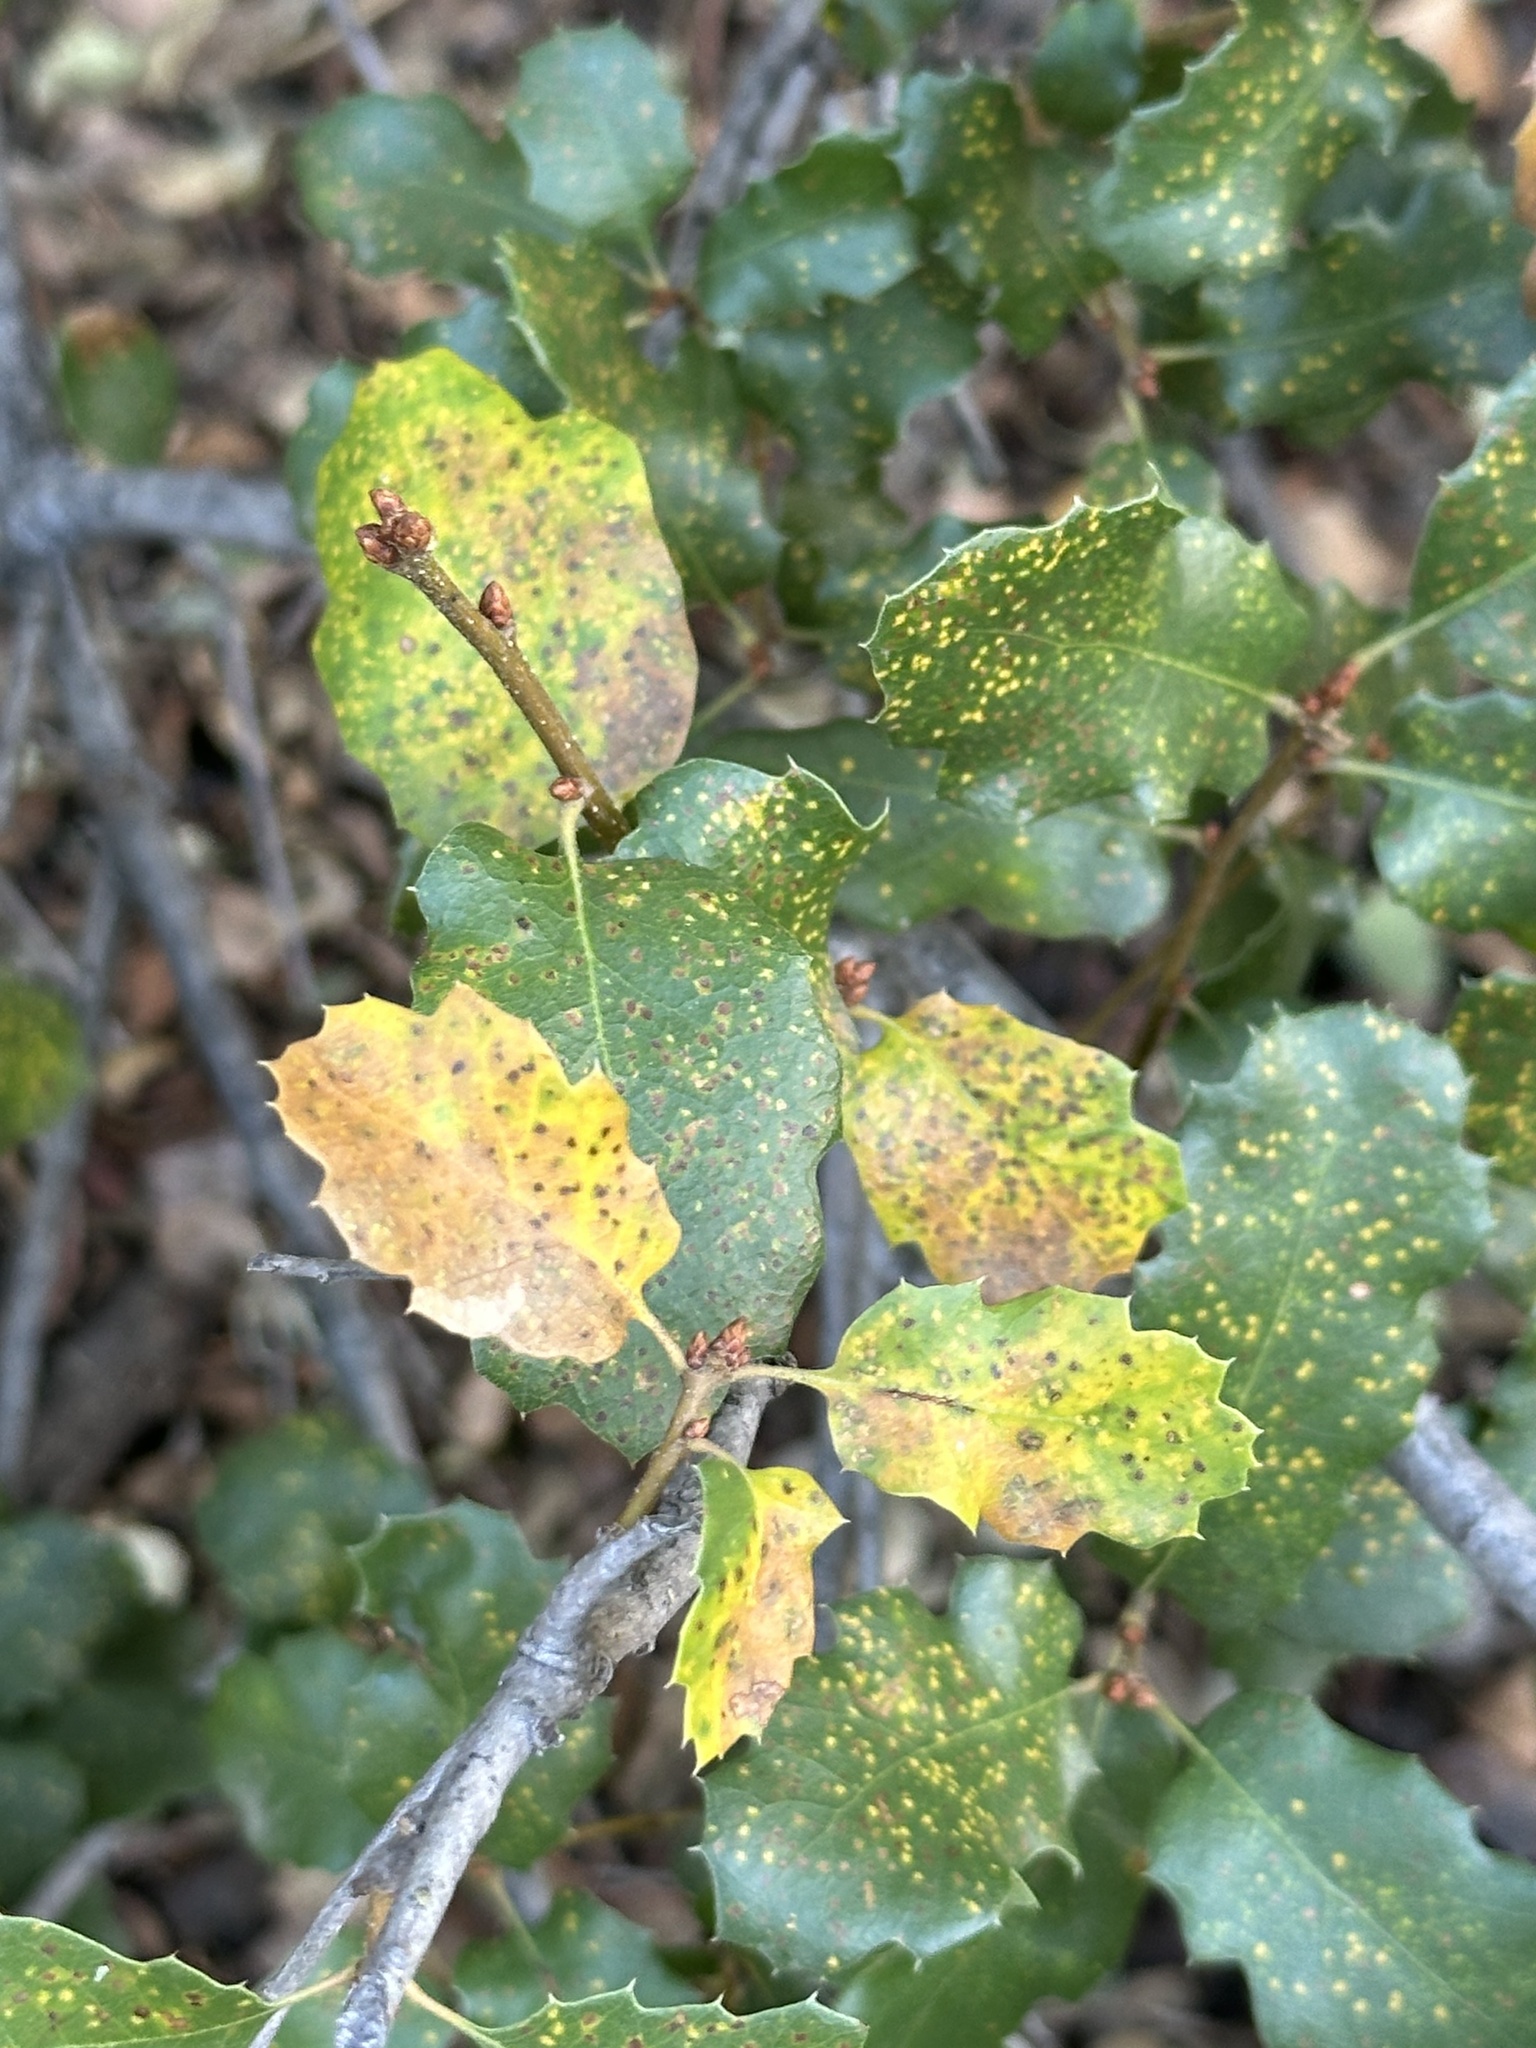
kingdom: Plantae
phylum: Tracheophyta
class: Magnoliopsida
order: Fagales
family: Fagaceae
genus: Quercus
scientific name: Quercus berberidifolia
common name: California scrub oak
